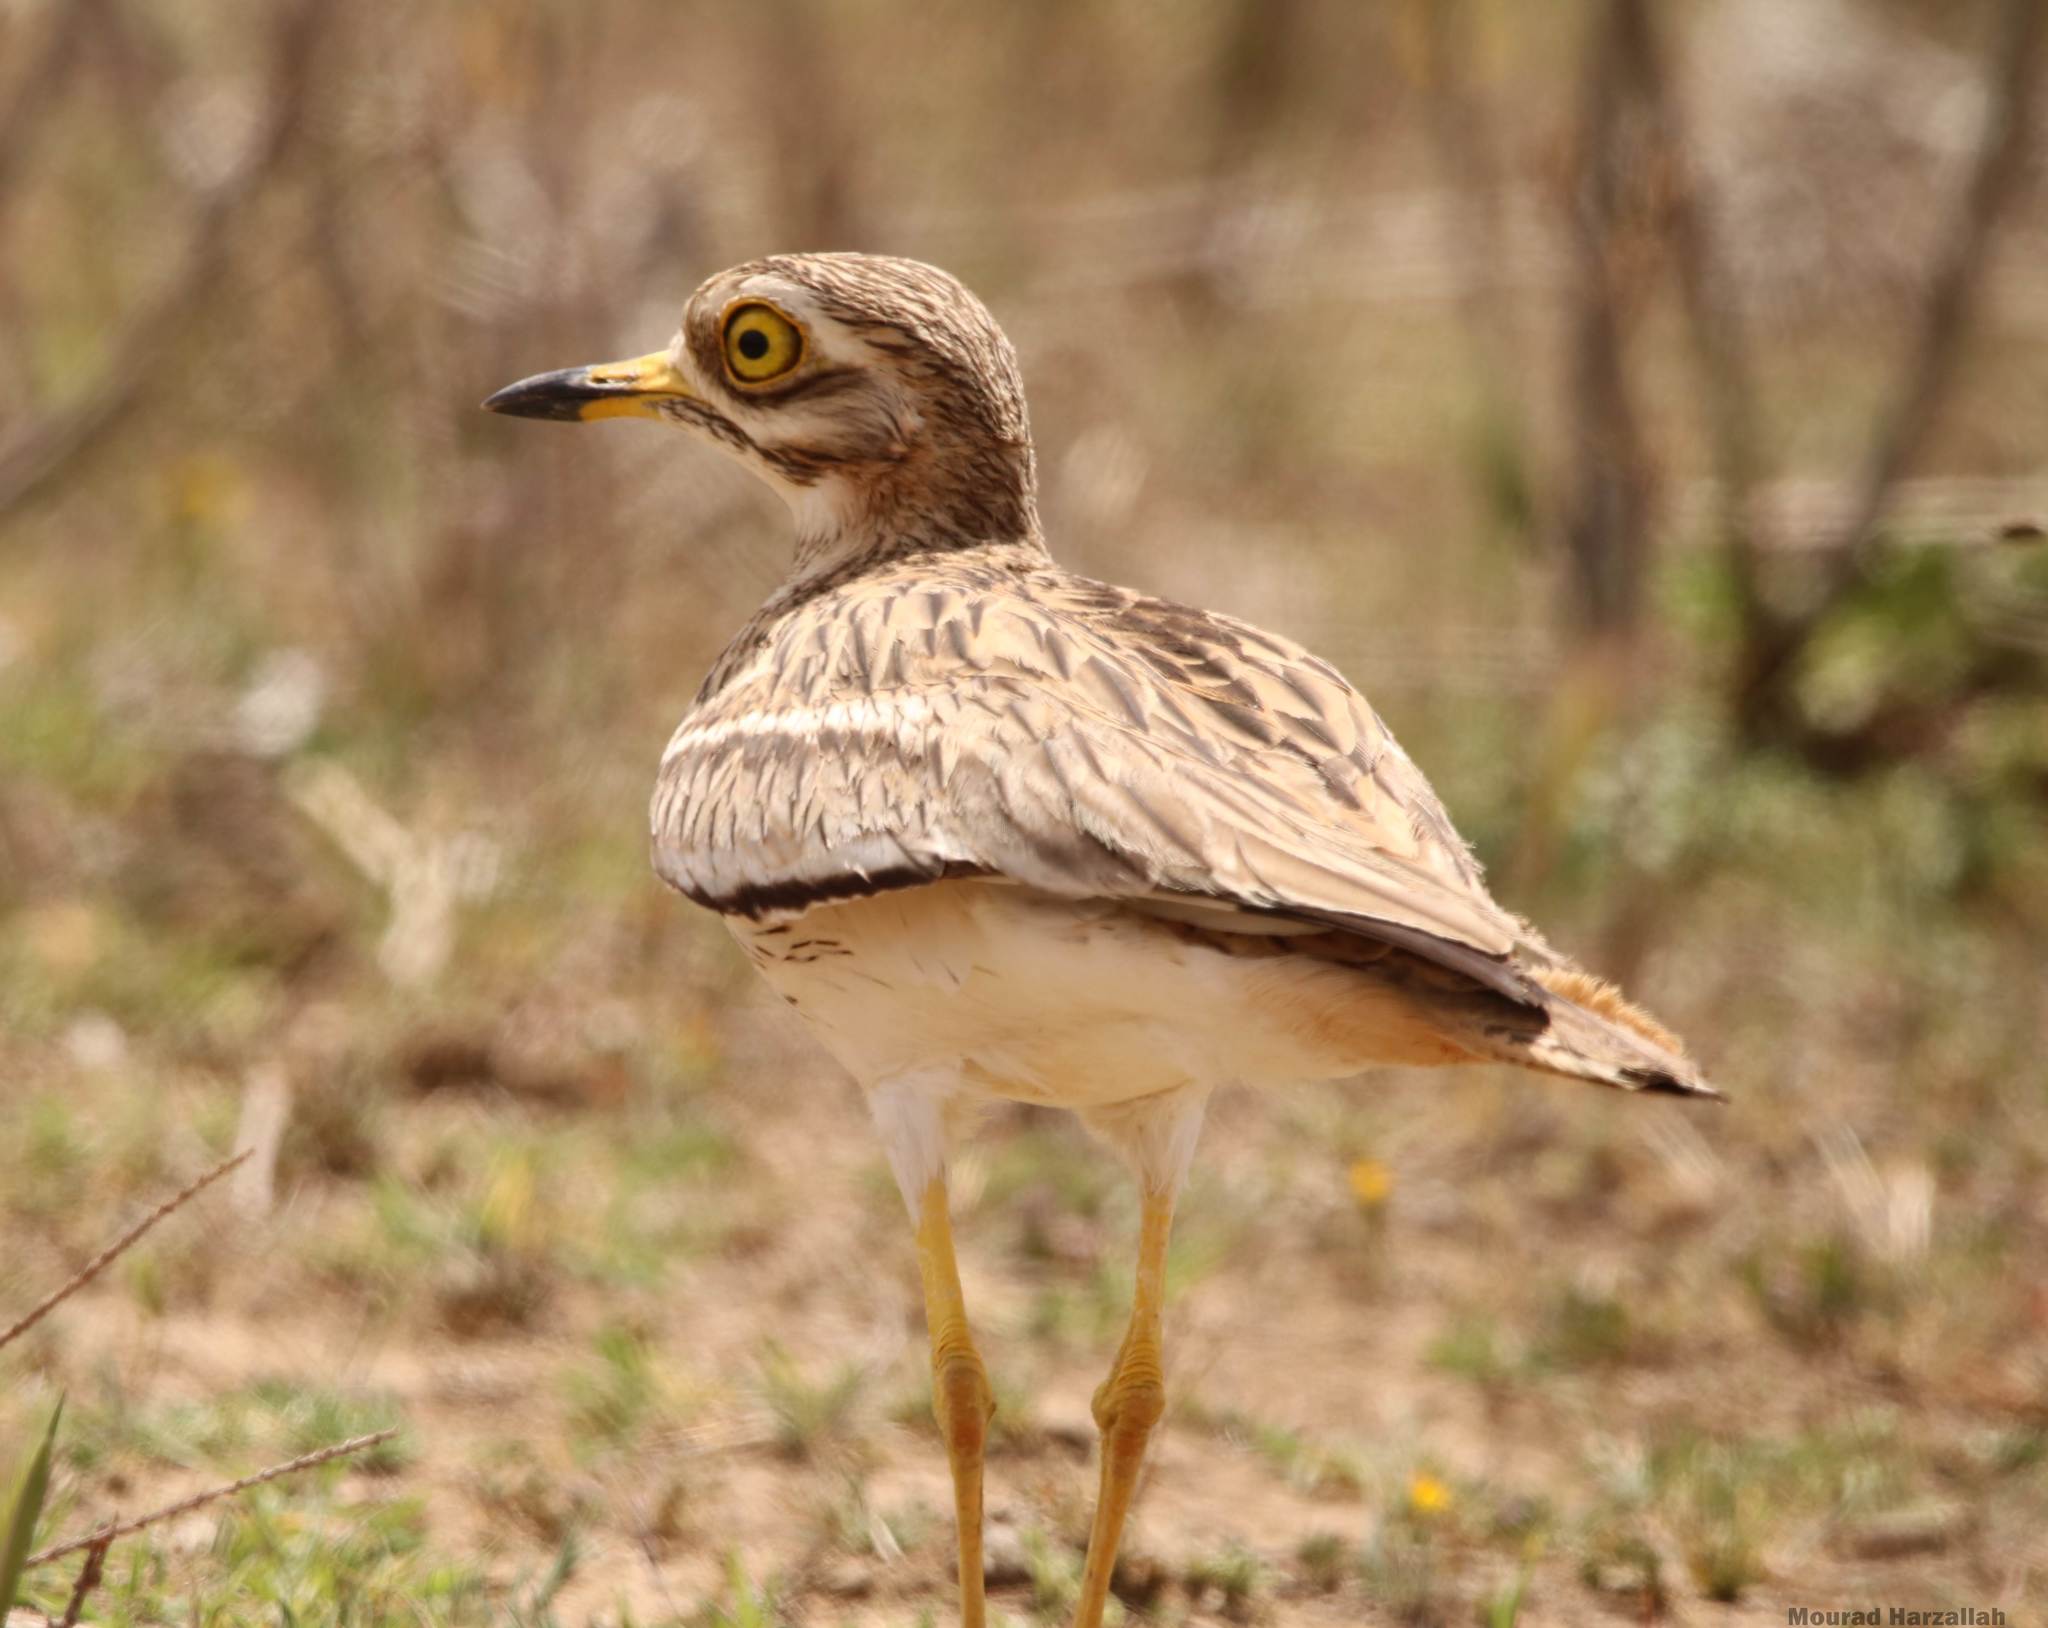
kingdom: Animalia
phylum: Chordata
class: Aves
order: Charadriiformes
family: Burhinidae
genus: Burhinus
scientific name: Burhinus oedicnemus
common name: Eurasian stone-curlew
